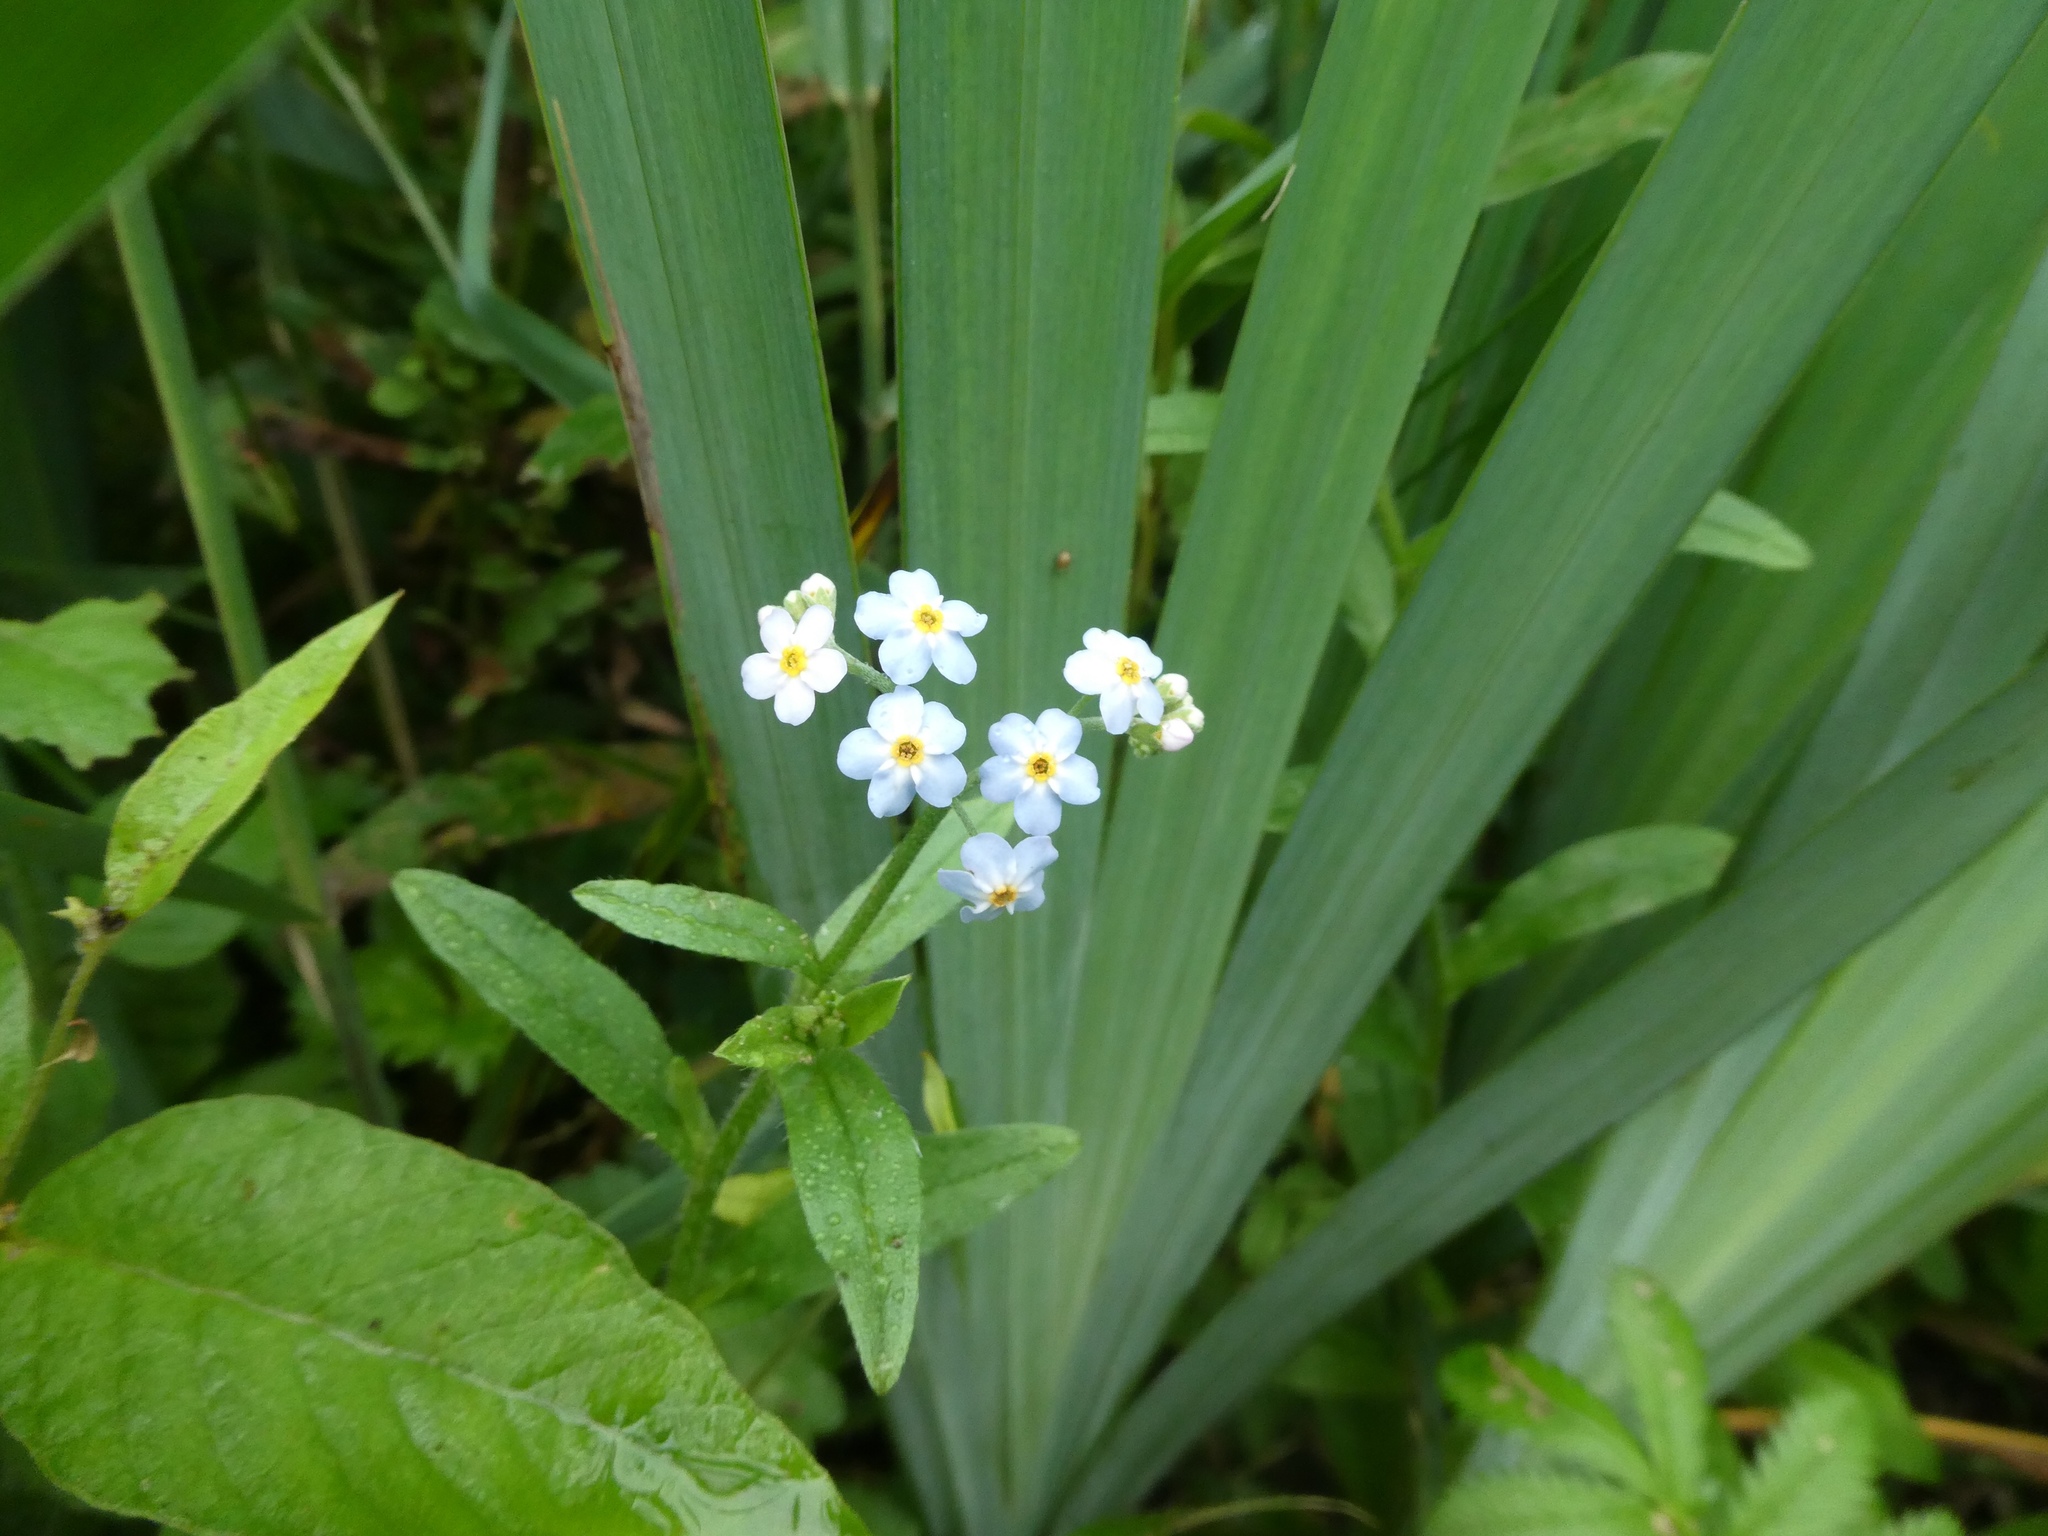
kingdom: Plantae
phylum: Tracheophyta
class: Magnoliopsida
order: Boraginales
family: Boraginaceae
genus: Myosotis
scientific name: Myosotis scorpioides
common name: Water forget-me-not
